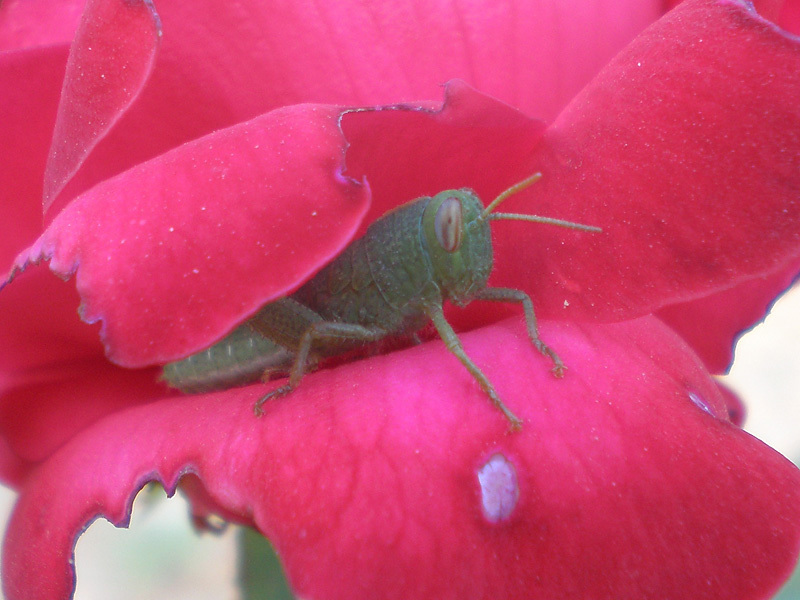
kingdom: Animalia
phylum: Arthropoda
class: Insecta
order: Orthoptera
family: Acrididae
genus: Anacridium
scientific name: Anacridium aegyptium
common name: Egyptian grasshopper
